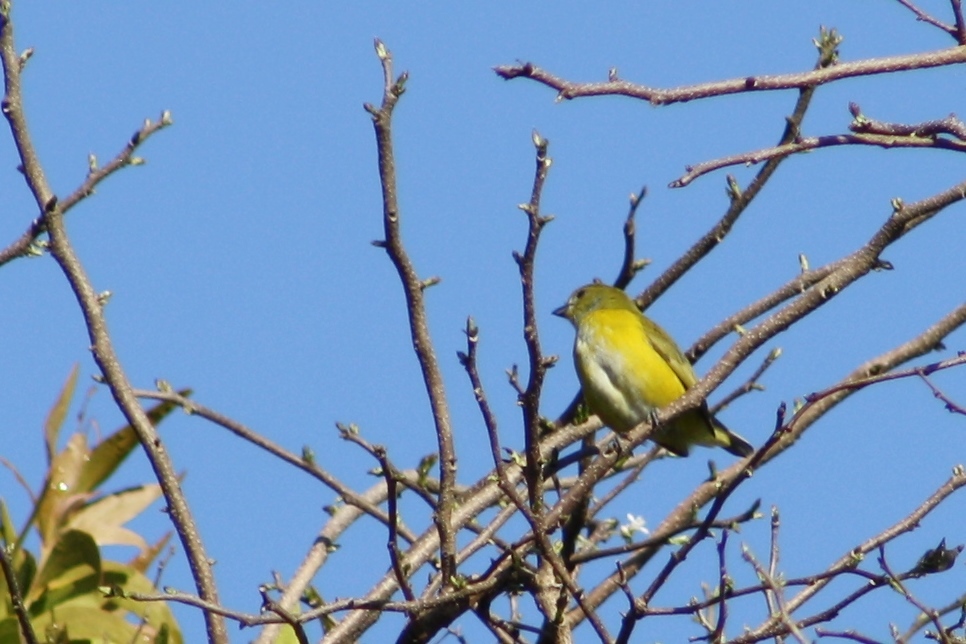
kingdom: Animalia
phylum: Chordata
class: Aves
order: Passeriformes
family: Fringillidae
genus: Euphonia
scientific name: Euphonia hirundinacea
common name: Yellow-throated euphonia
